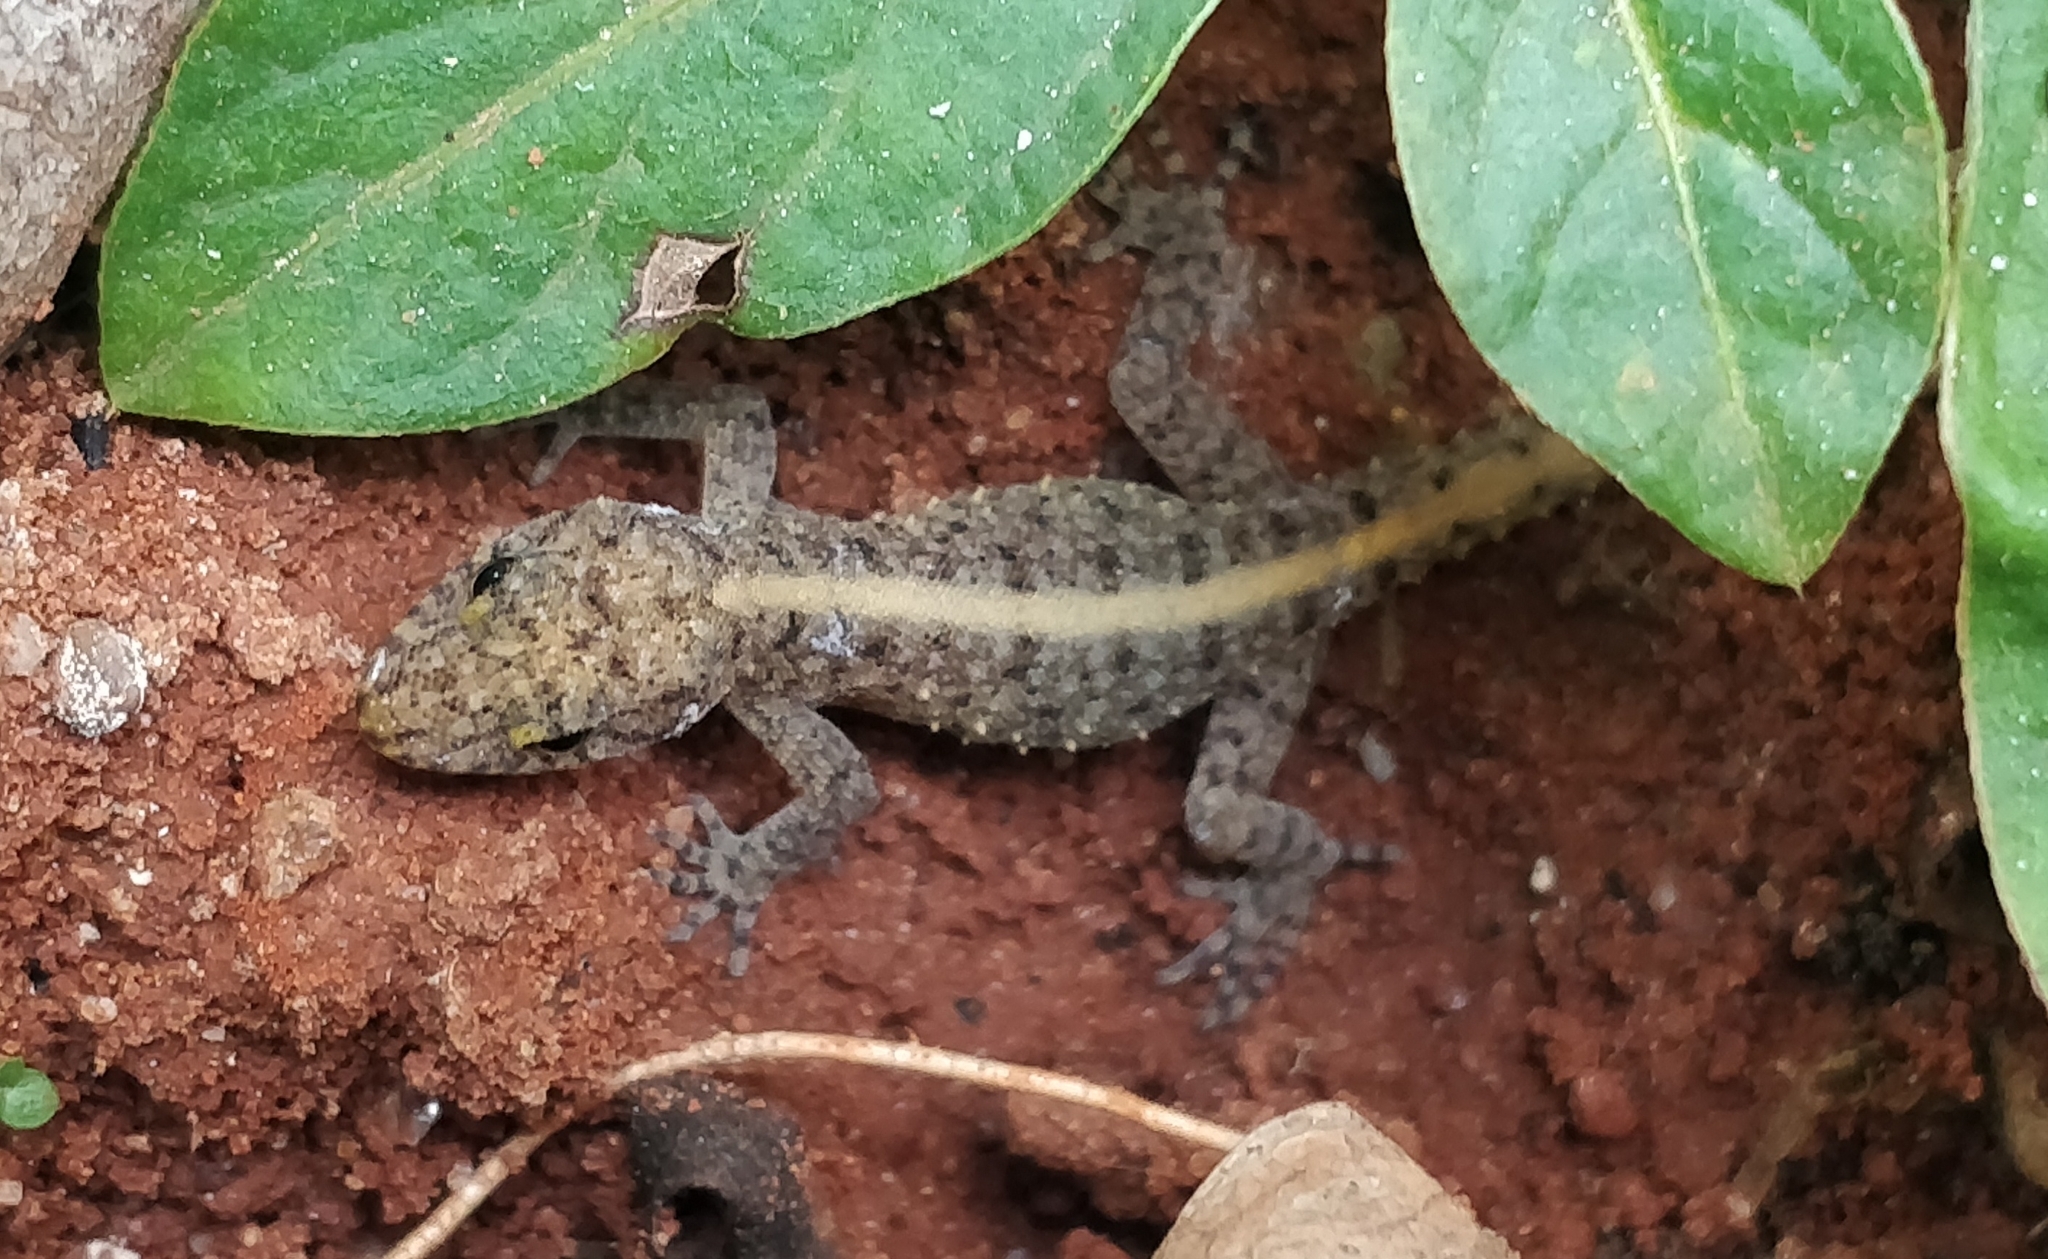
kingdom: Animalia
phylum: Chordata
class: Squamata
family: Gekkonidae
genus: Cnemaspis
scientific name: Cnemaspis mysoriensis
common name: Mysore day gecko
